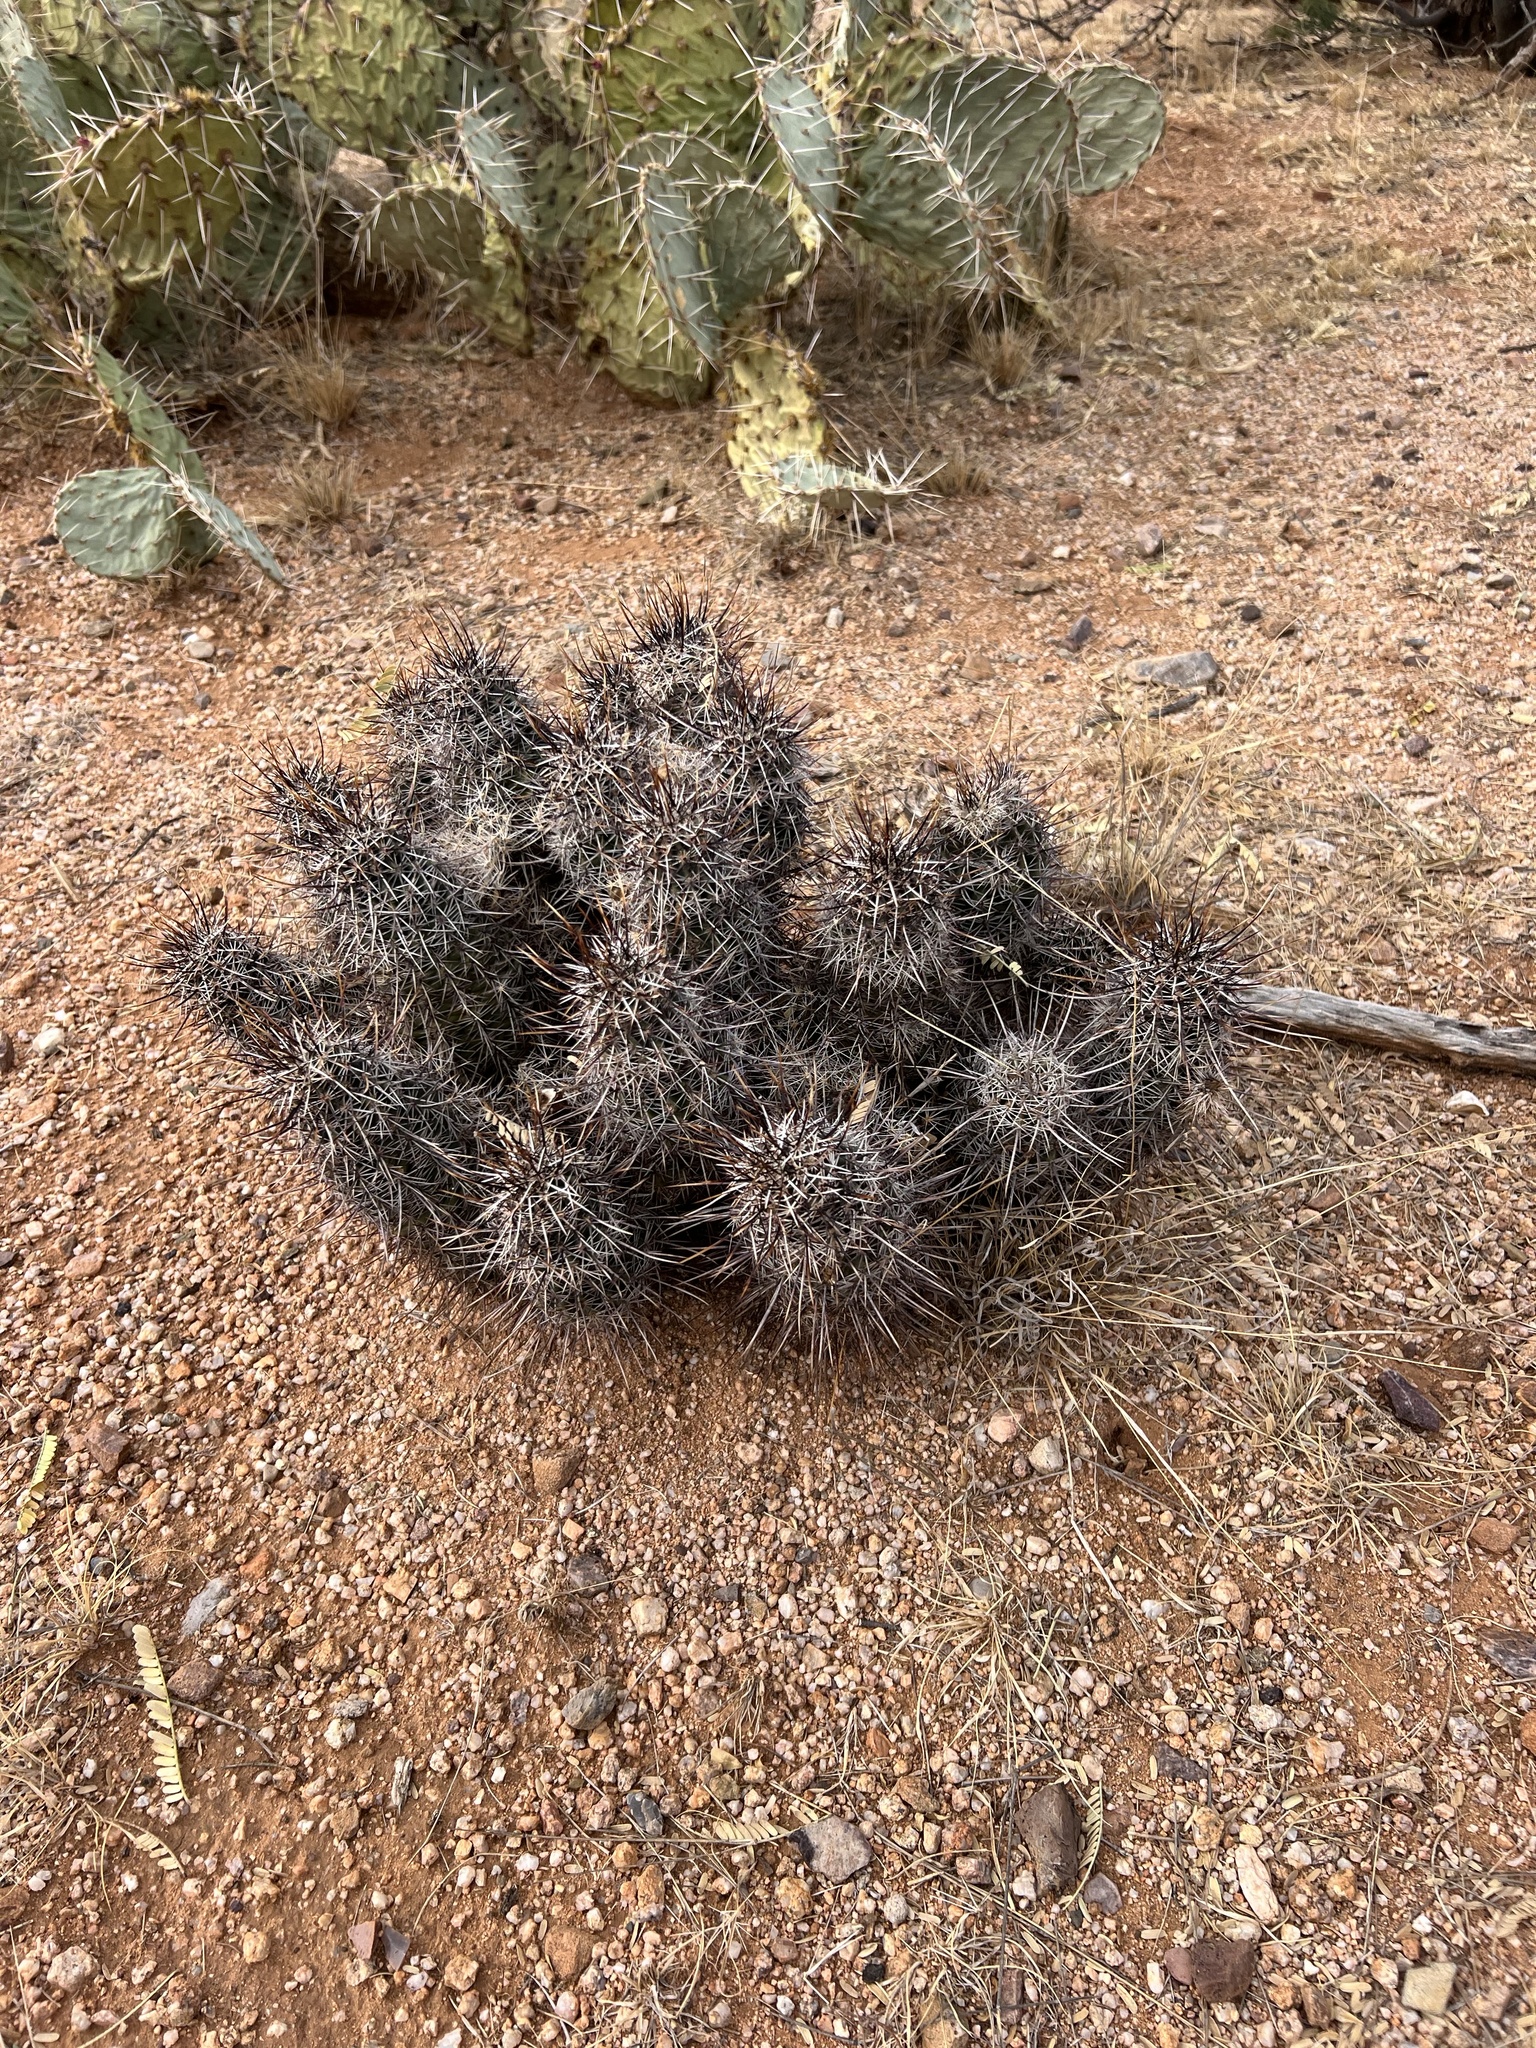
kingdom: Plantae
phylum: Tracheophyta
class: Magnoliopsida
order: Caryophyllales
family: Cactaceae
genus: Echinocereus
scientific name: Echinocereus fasciculatus
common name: Bundle hedgehog
